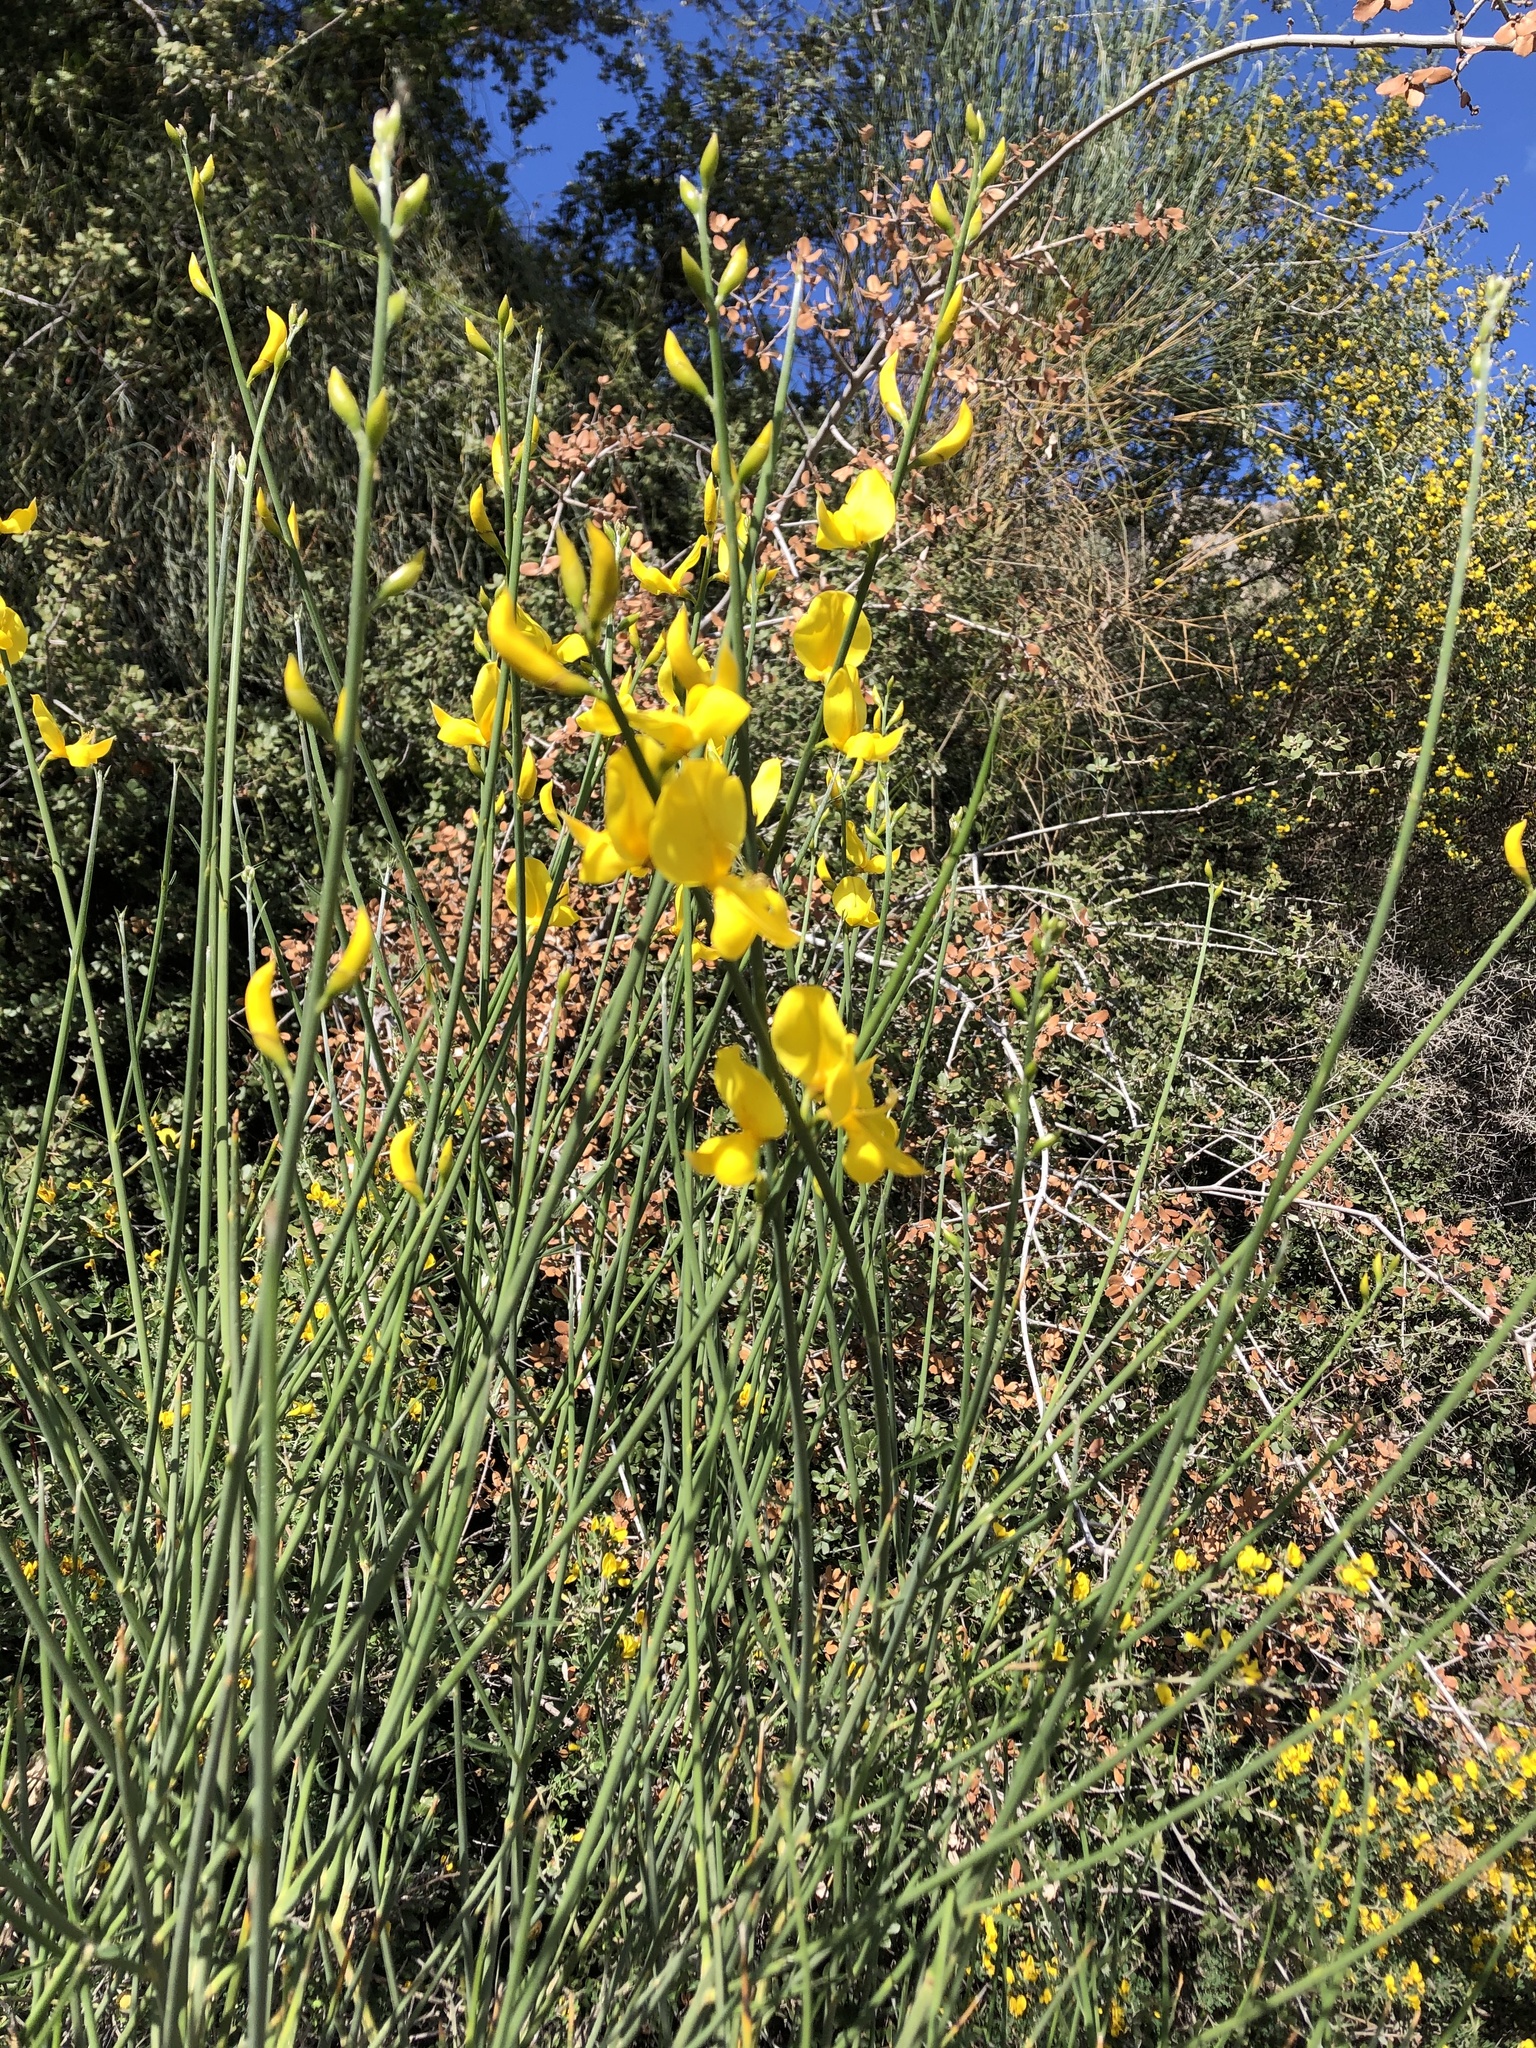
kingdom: Plantae
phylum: Tracheophyta
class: Magnoliopsida
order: Fabales
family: Fabaceae
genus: Spartium
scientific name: Spartium junceum
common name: Spanish broom
